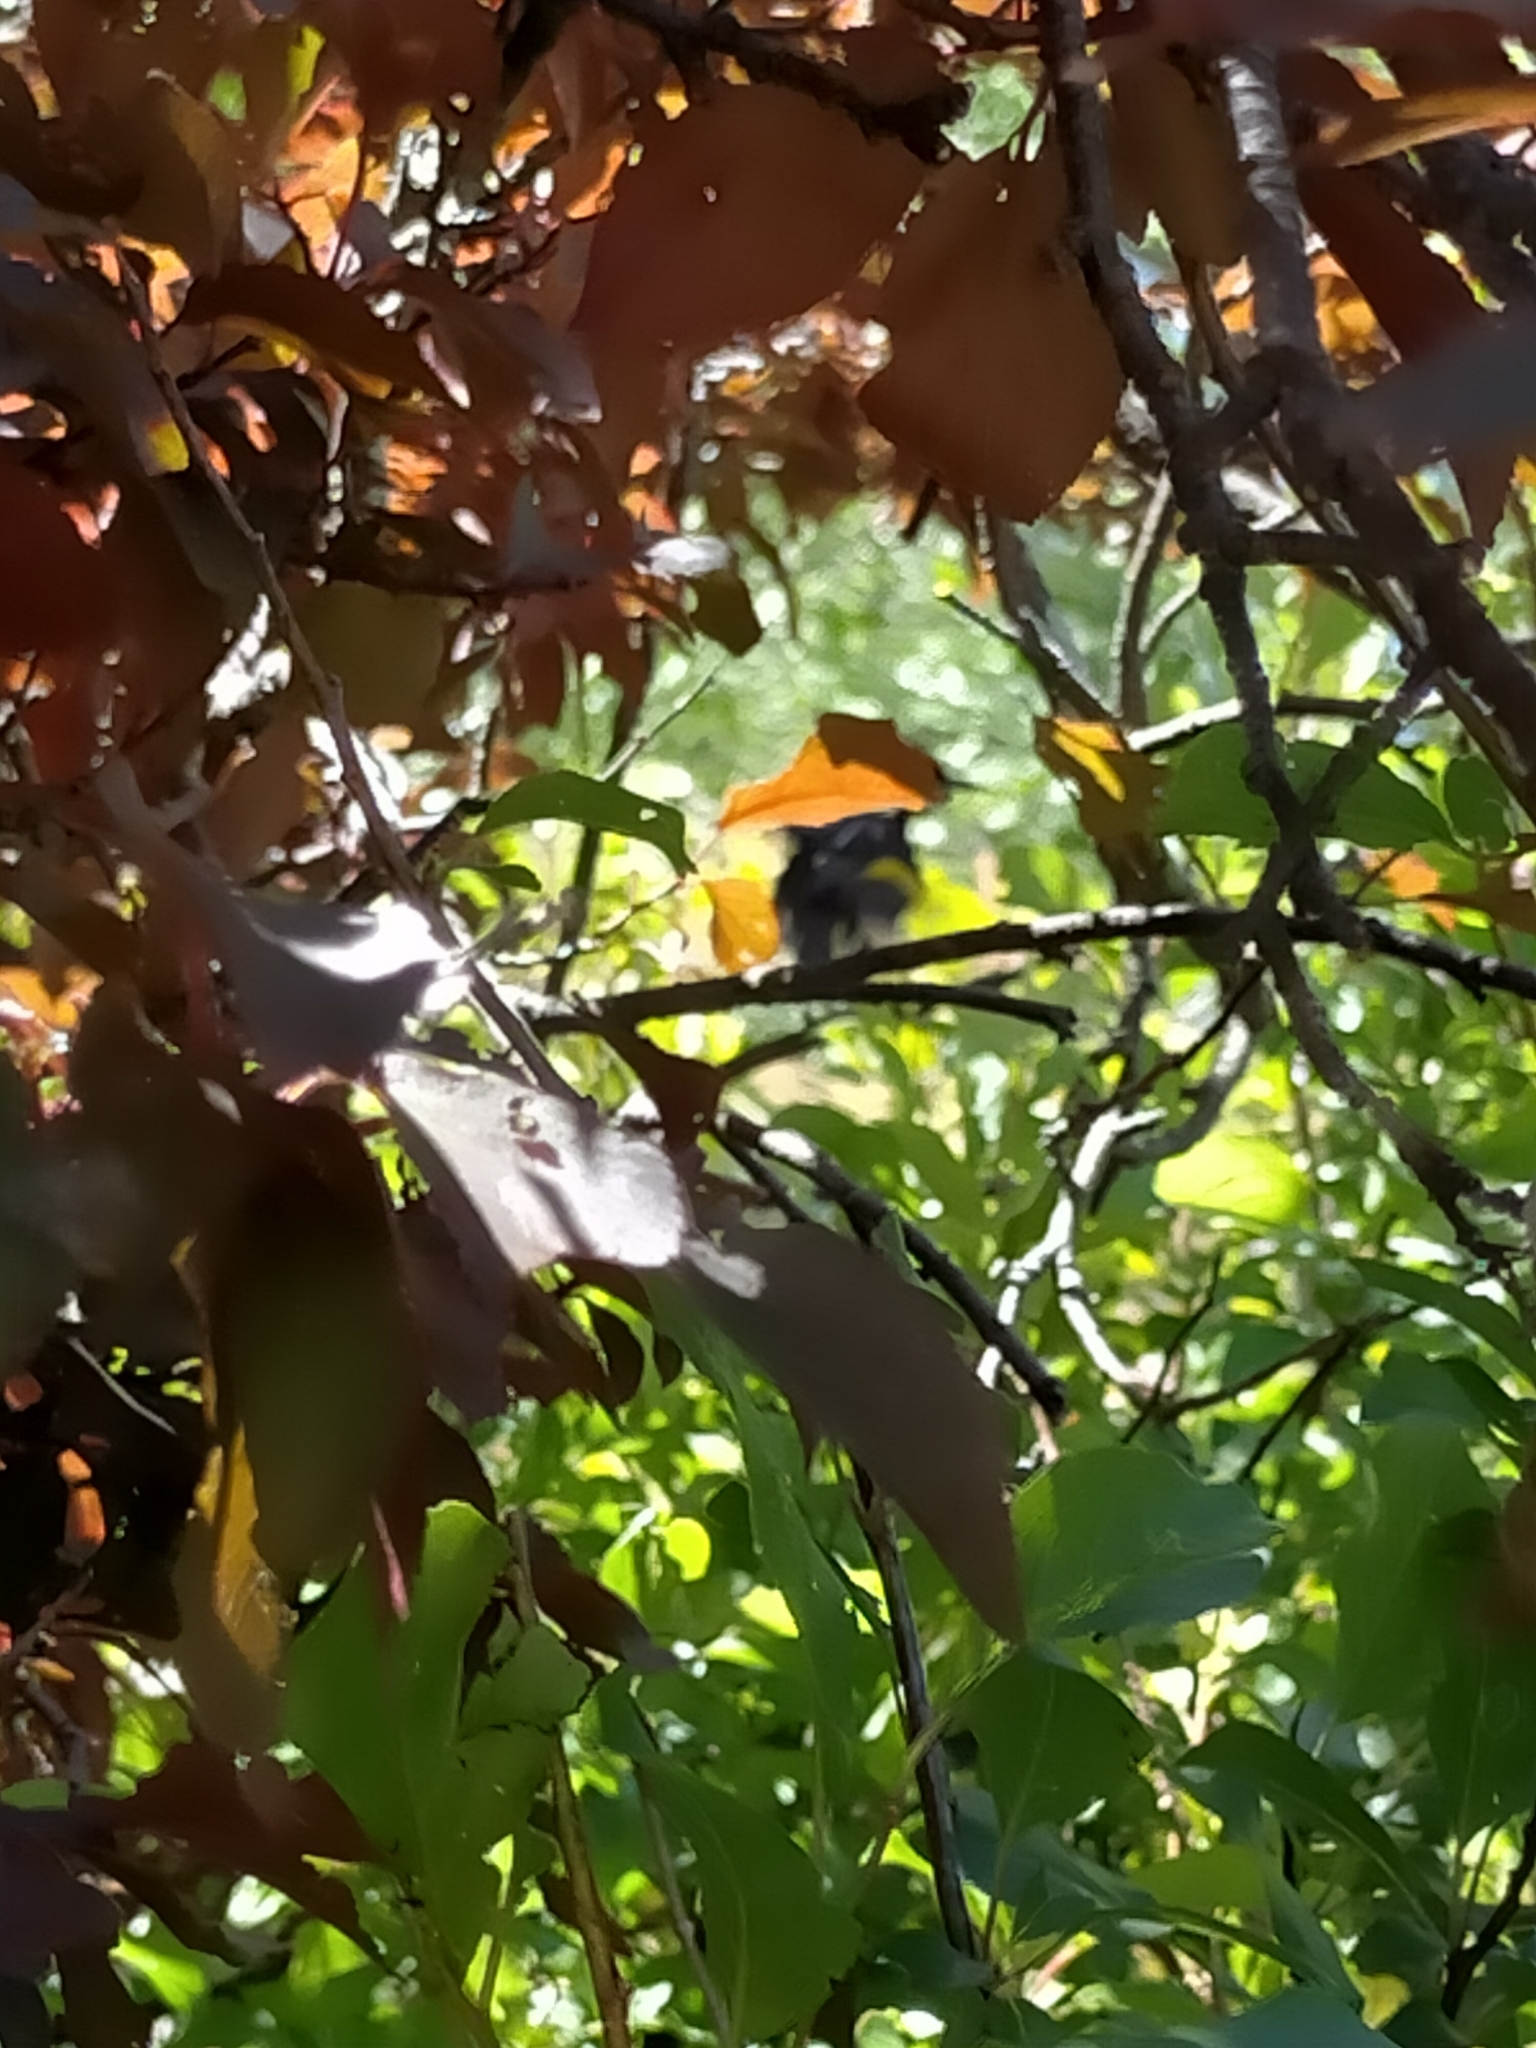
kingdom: Animalia
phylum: Chordata
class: Aves
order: Passeriformes
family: Meliphagidae
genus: Phylidonyris
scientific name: Phylidonyris novaehollandiae
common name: New holland honeyeater
